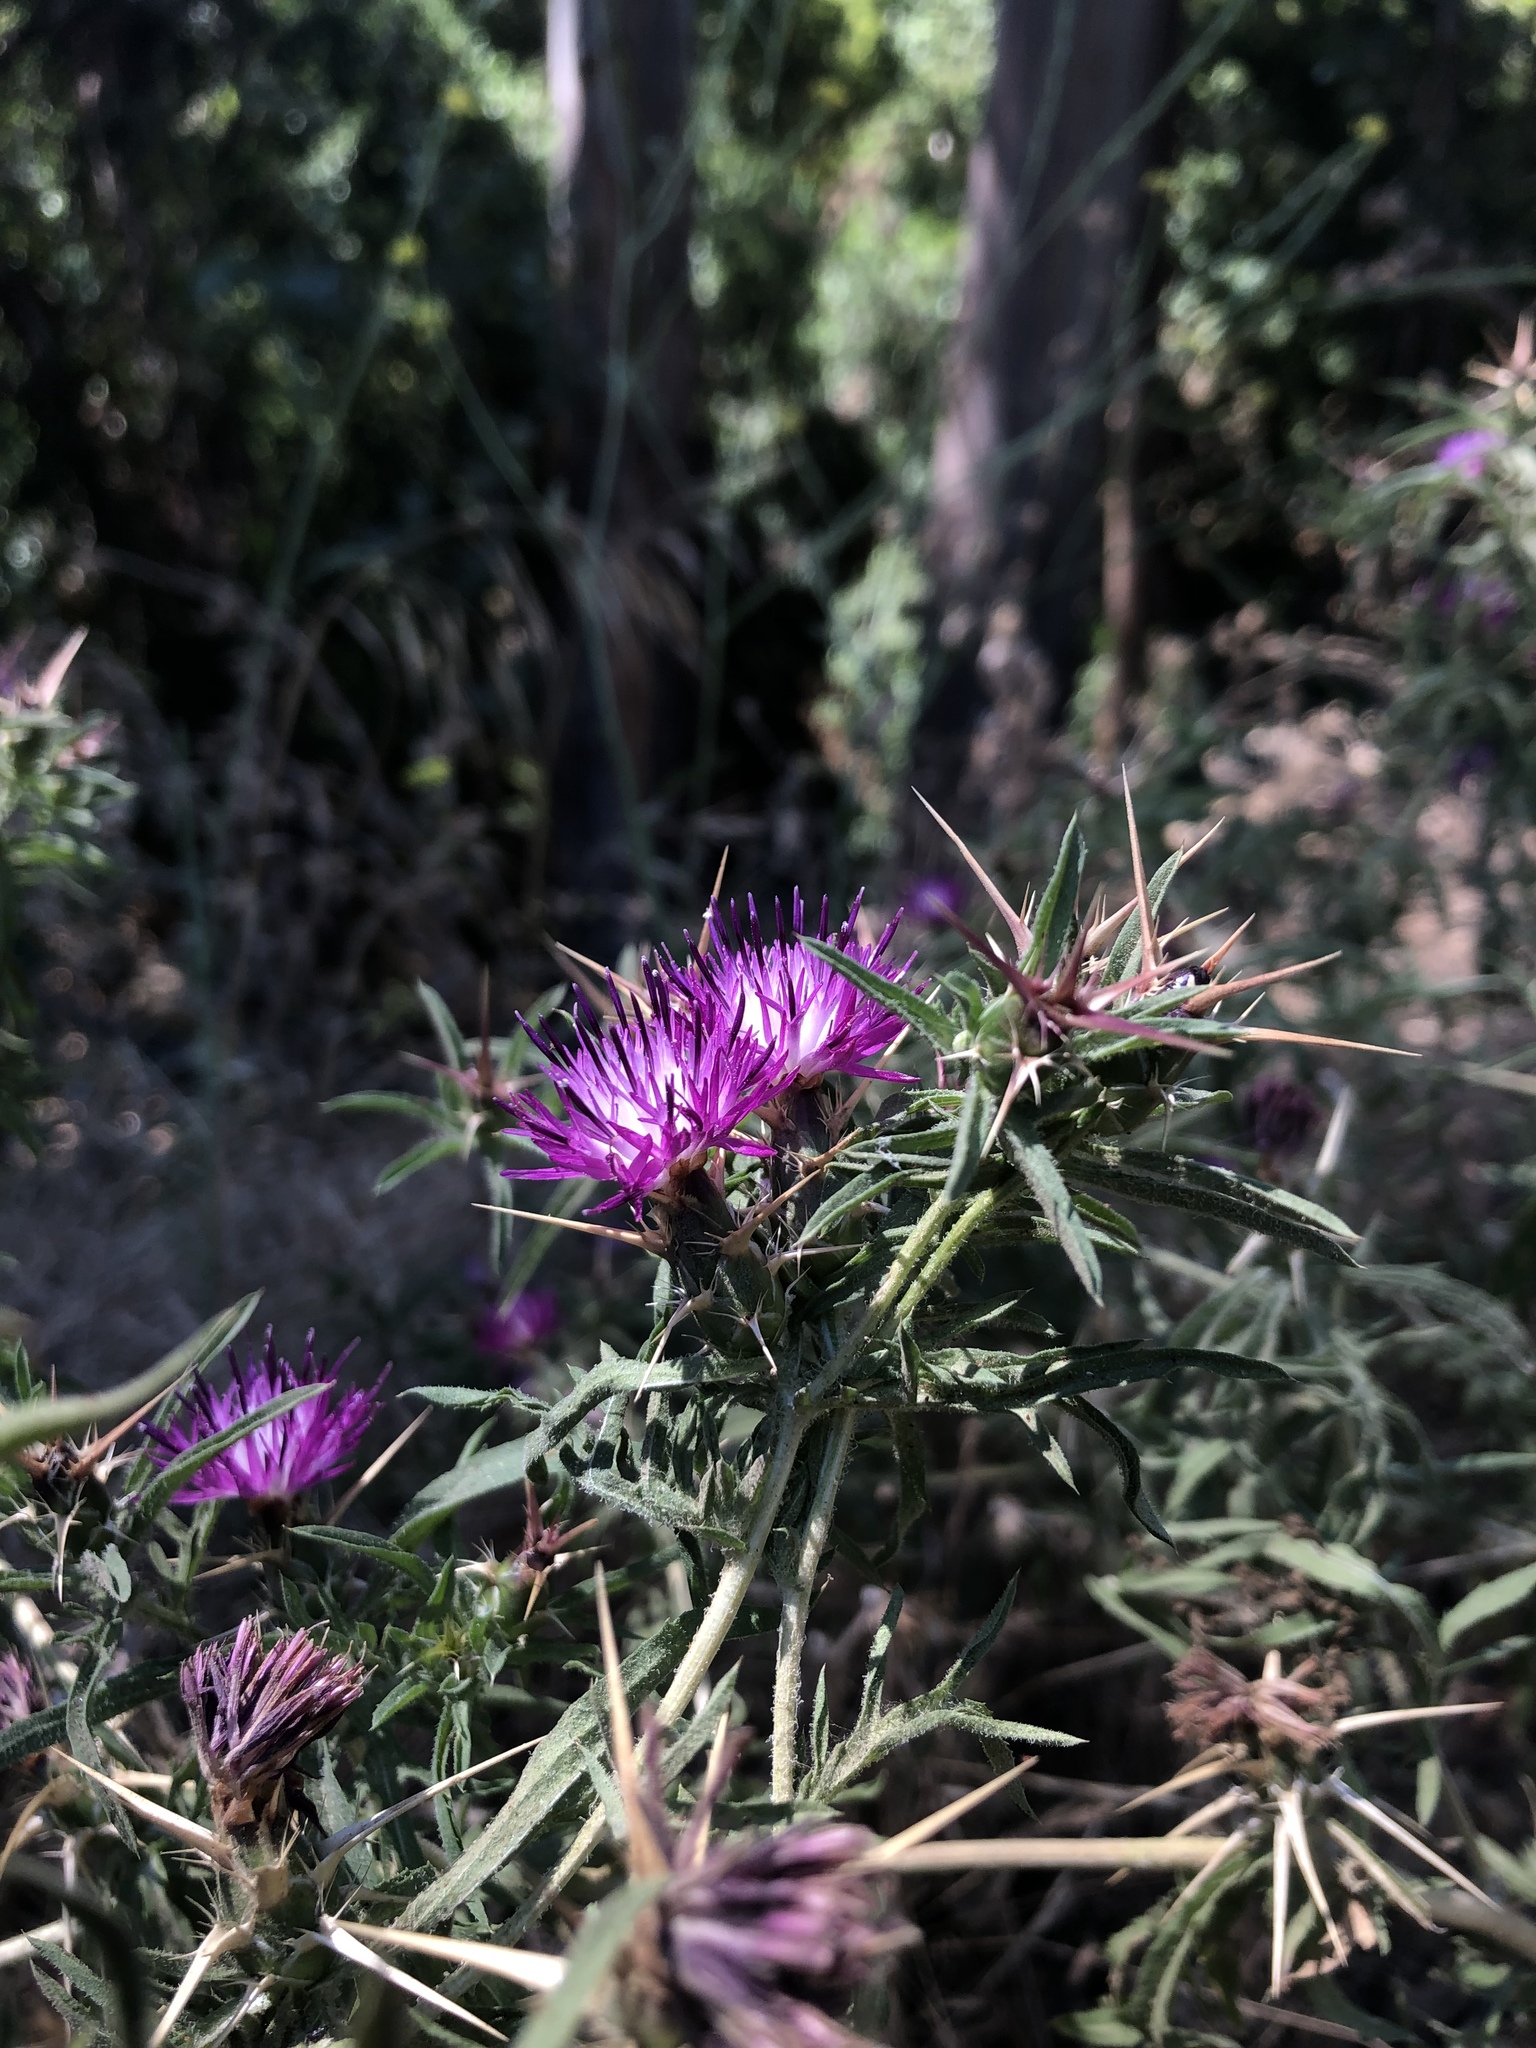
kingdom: Plantae
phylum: Tracheophyta
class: Magnoliopsida
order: Asterales
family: Asteraceae
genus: Centaurea
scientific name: Centaurea calcitrapa
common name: Red star-thistle
